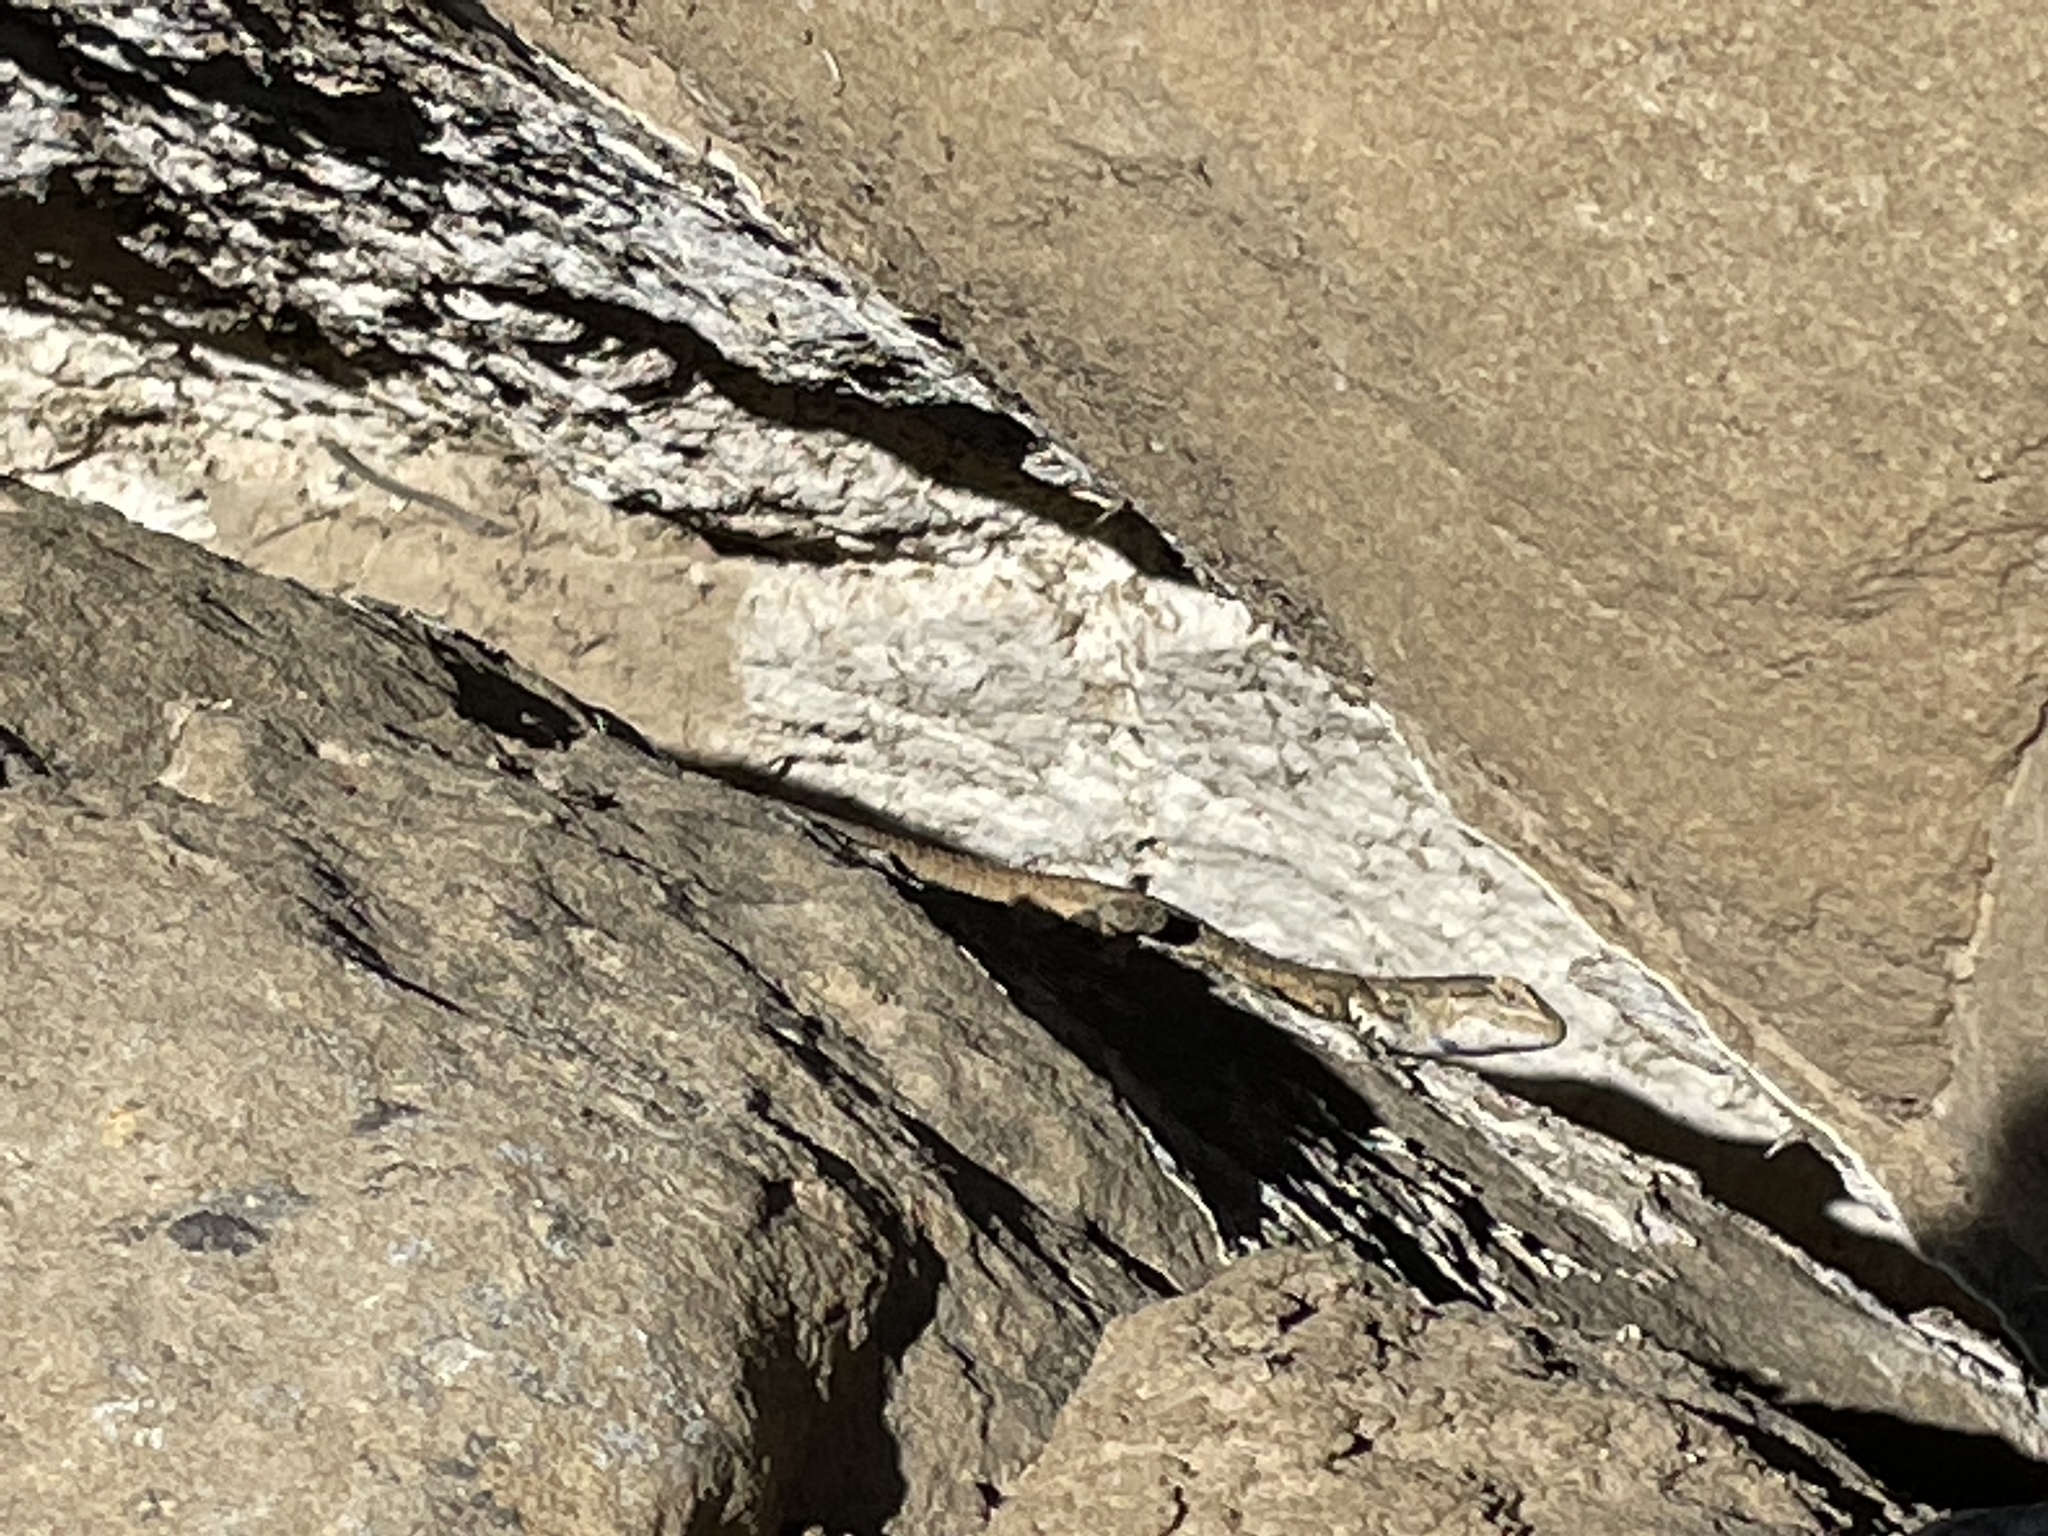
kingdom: Animalia
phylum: Chordata
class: Squamata
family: Phrynosomatidae
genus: Sceloporus
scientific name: Sceloporus
